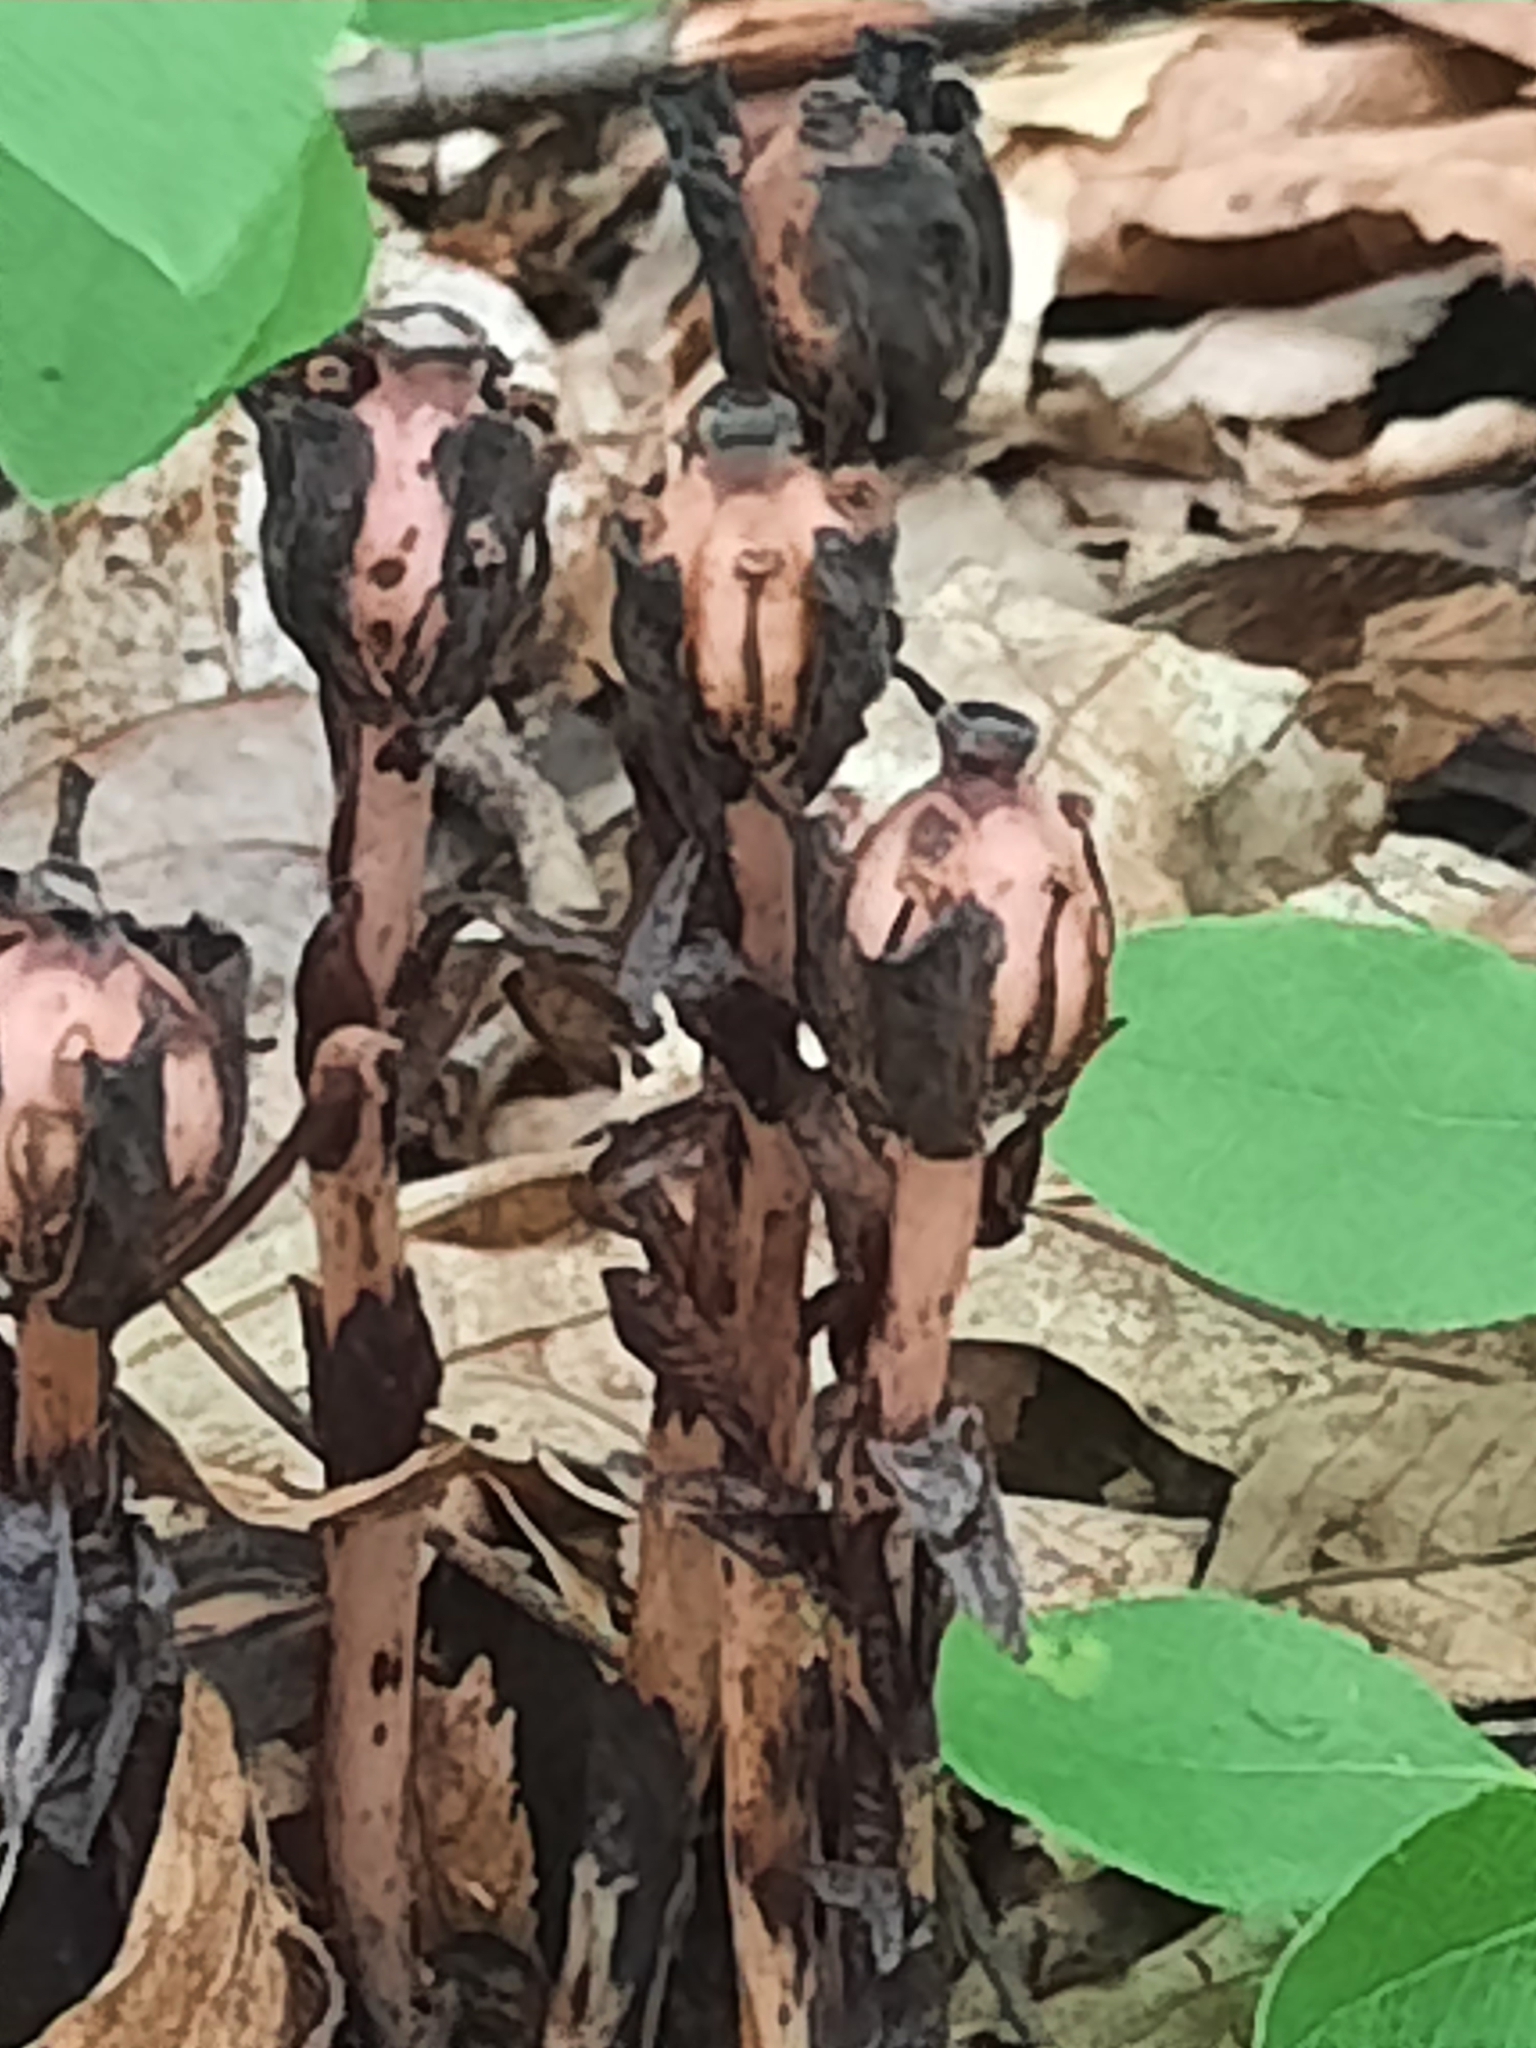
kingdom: Plantae
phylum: Tracheophyta
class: Magnoliopsida
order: Ericales
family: Ericaceae
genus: Monotropa
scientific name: Monotropa uniflora
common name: Convulsion root
